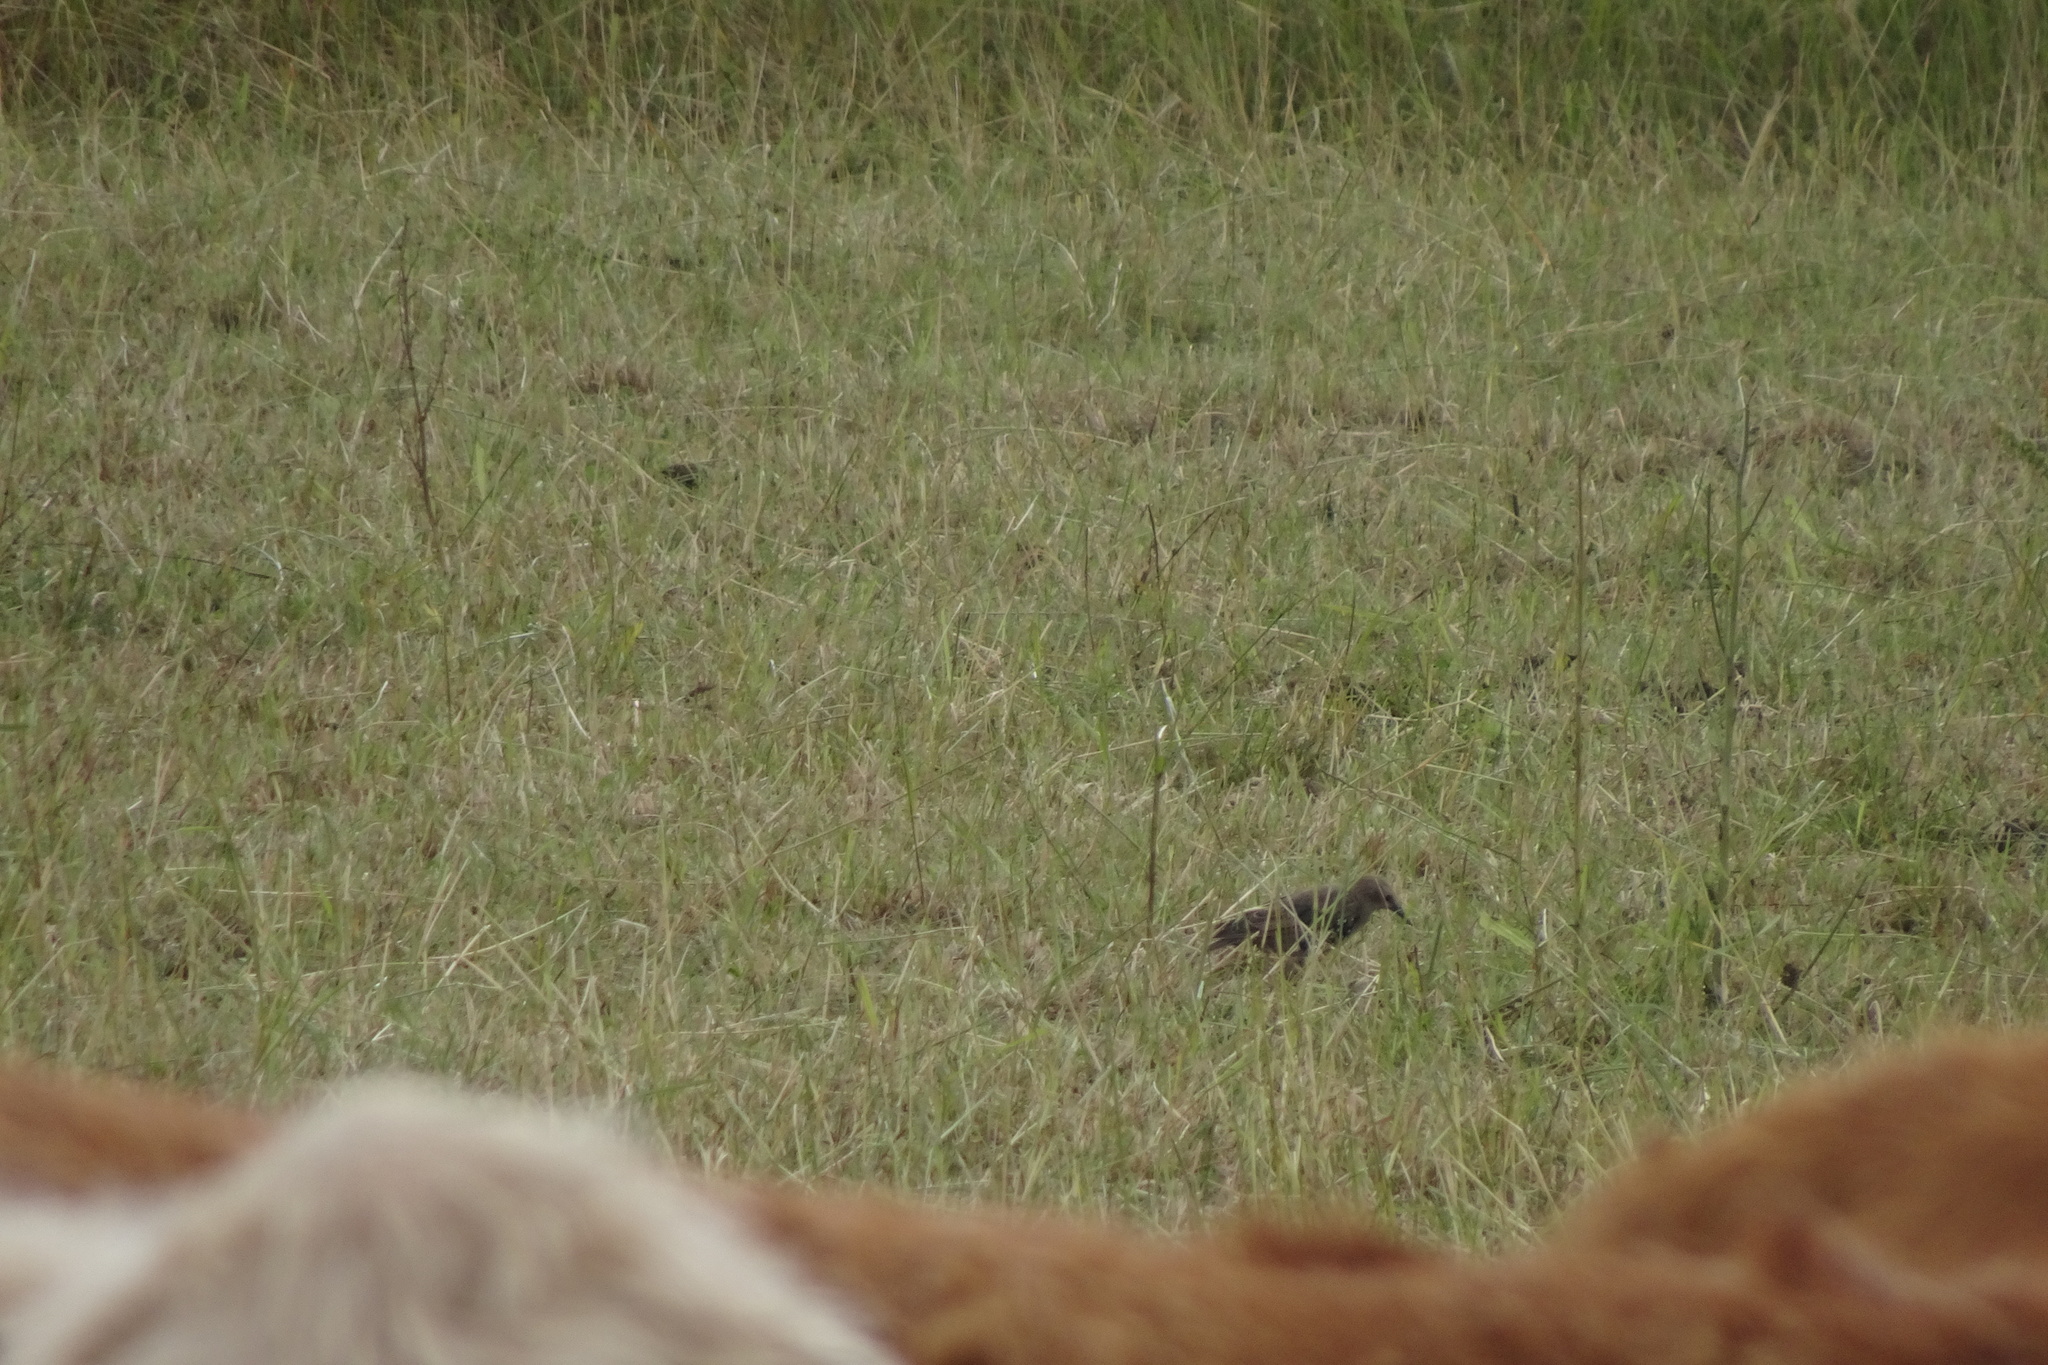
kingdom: Animalia
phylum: Chordata
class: Aves
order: Passeriformes
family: Sturnidae
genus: Sturnus
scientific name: Sturnus vulgaris
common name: Common starling
